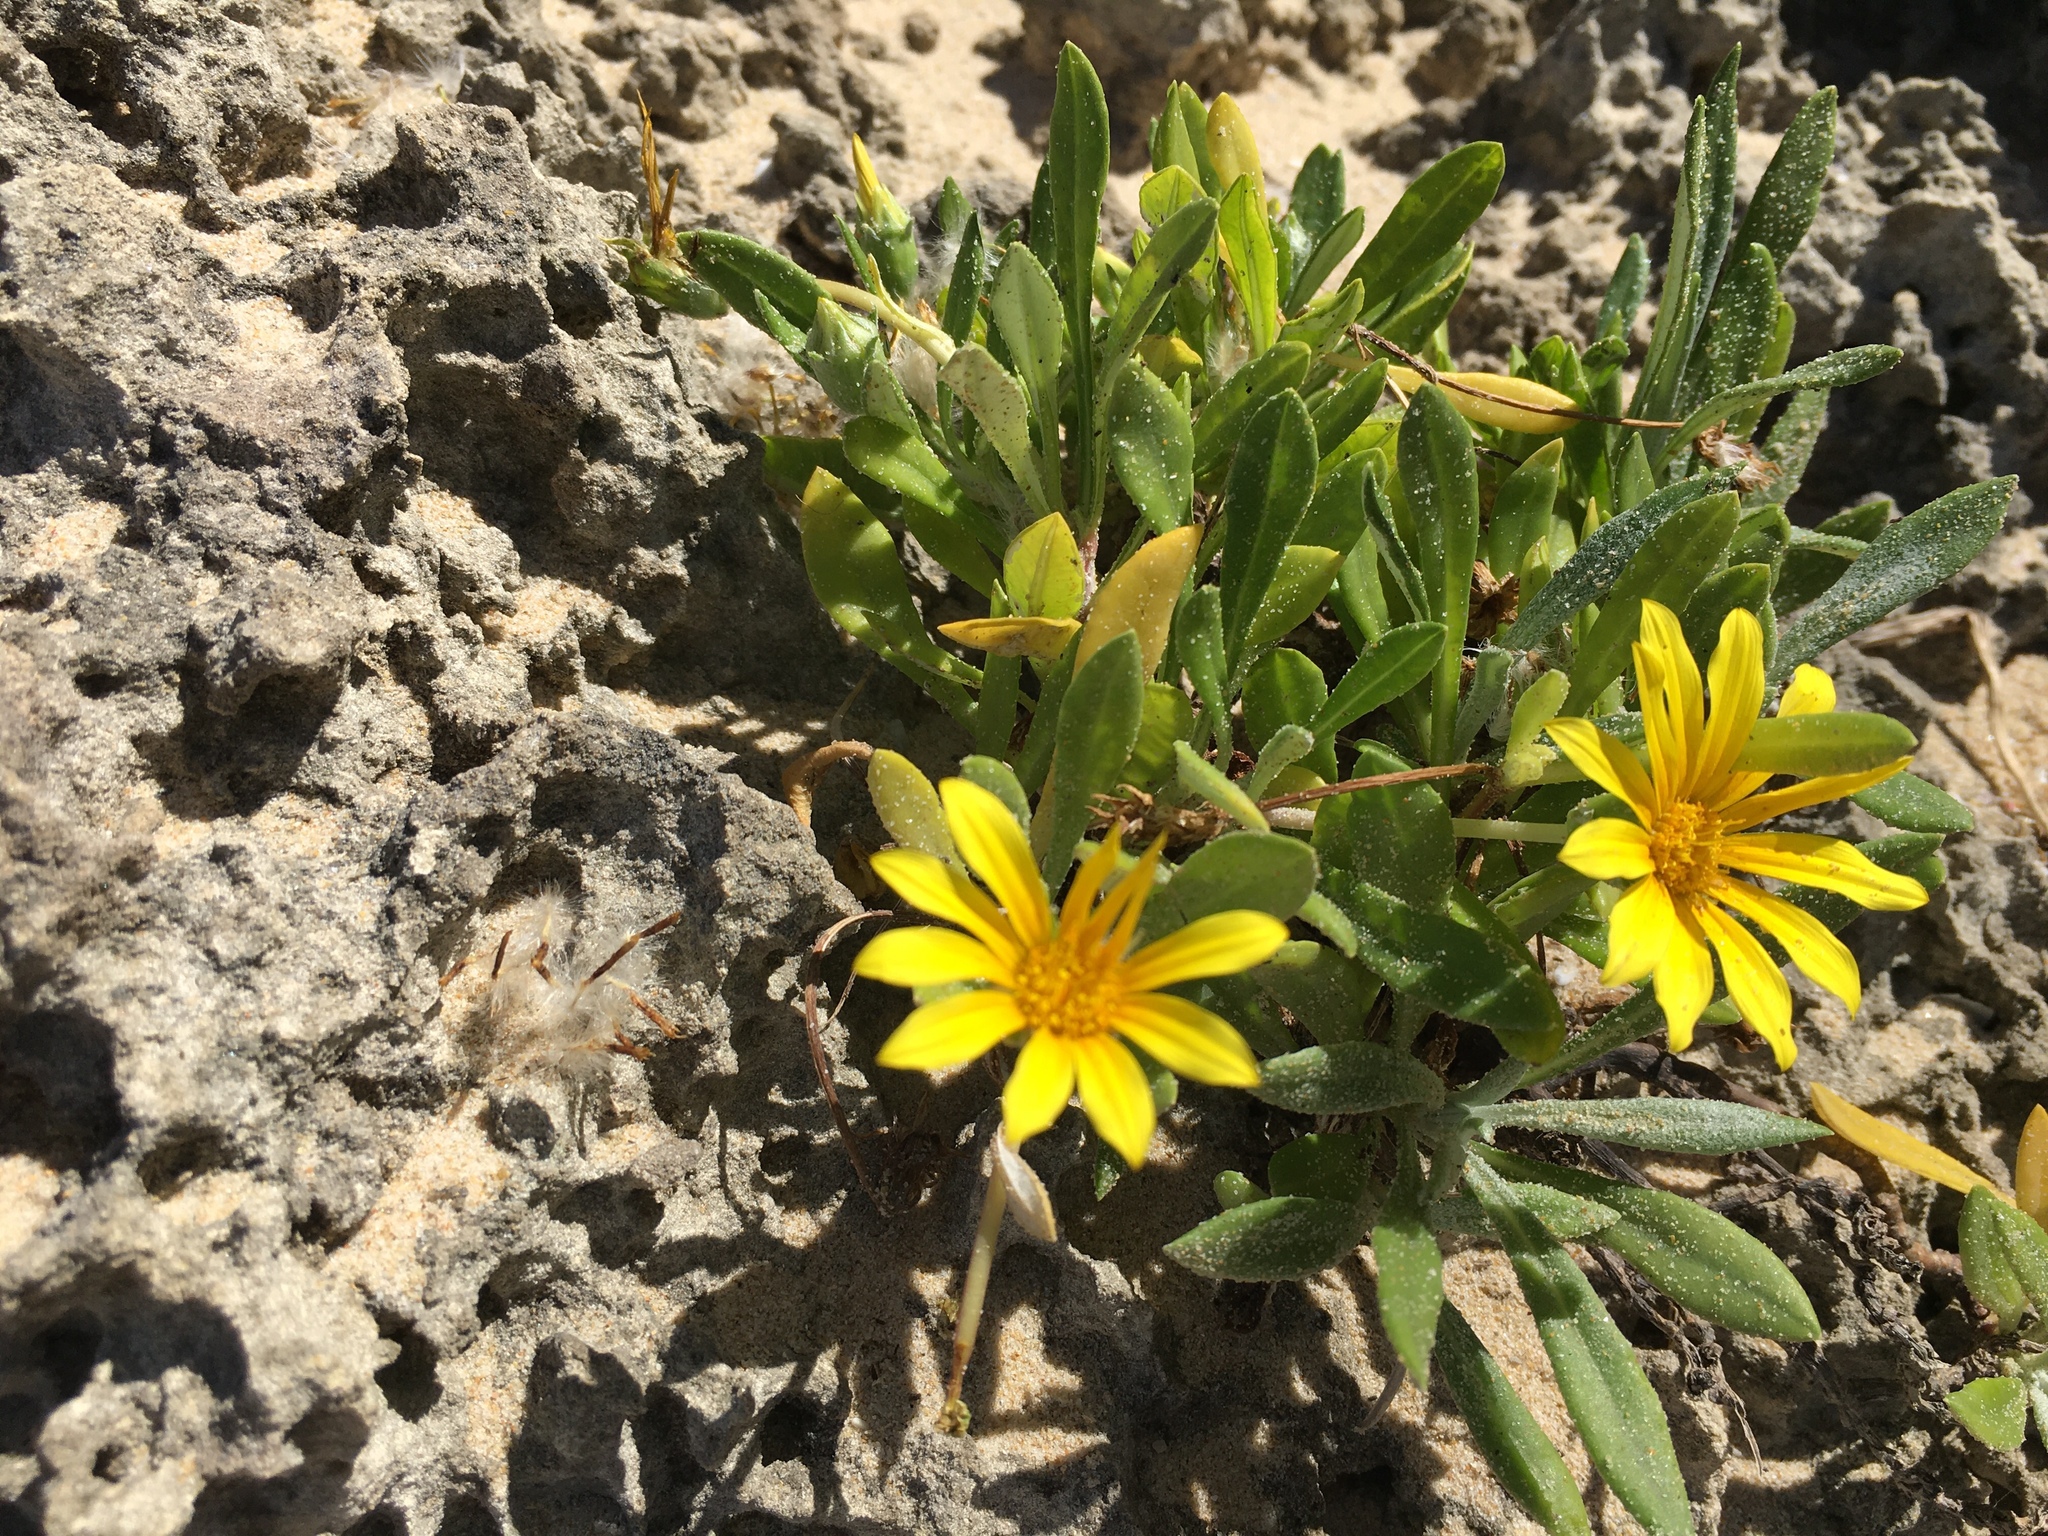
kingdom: Plantae
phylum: Tracheophyta
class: Magnoliopsida
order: Asterales
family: Asteraceae
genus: Gazania
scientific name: Gazania rigens
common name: Treasureflower
